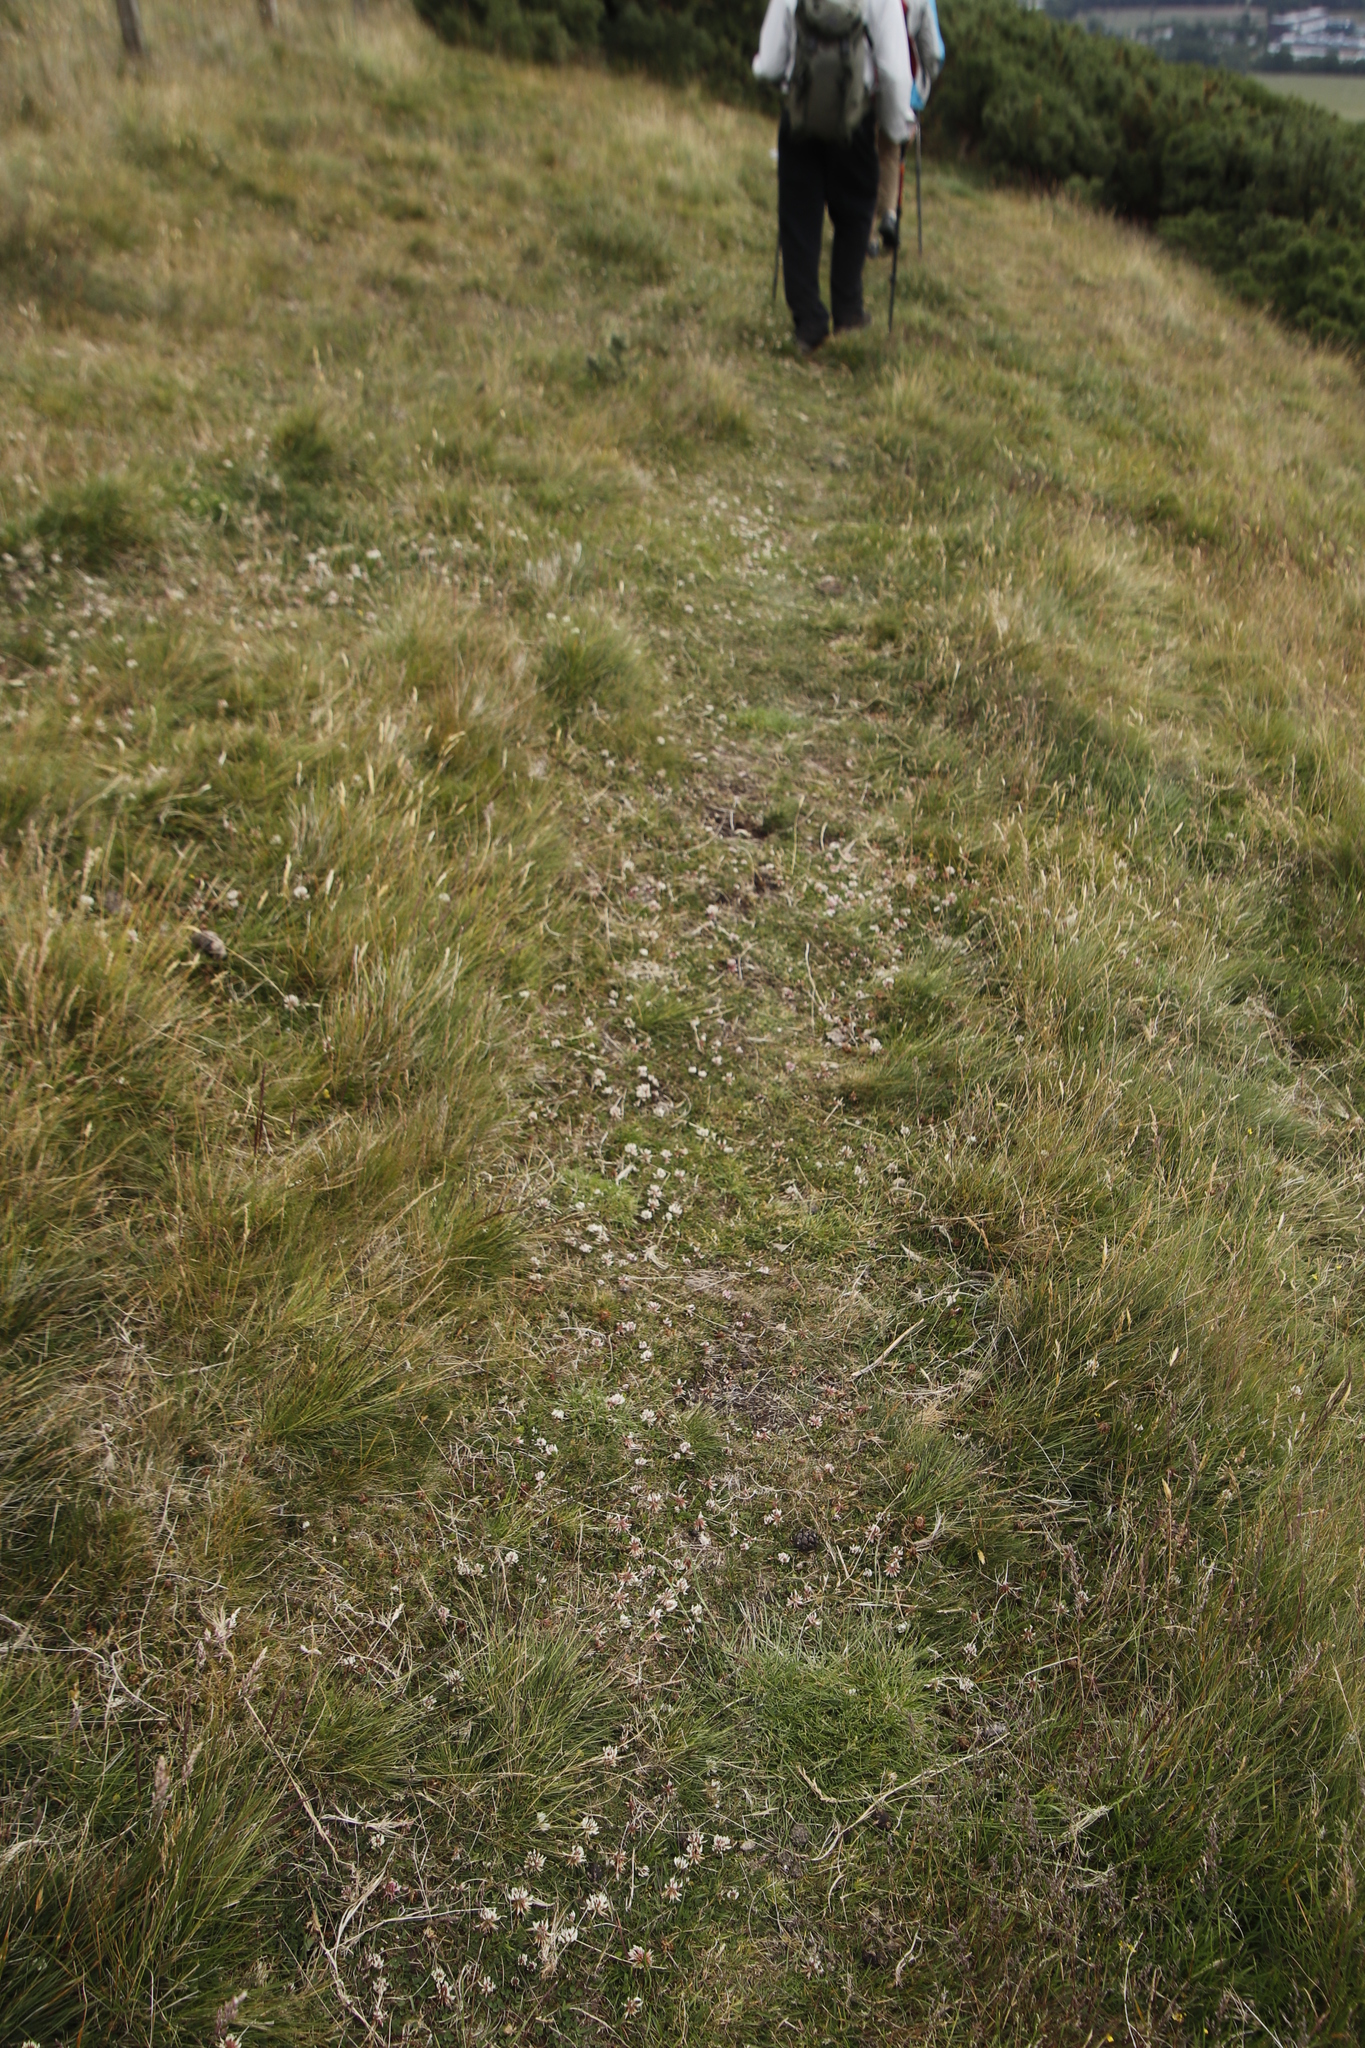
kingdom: Plantae
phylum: Tracheophyta
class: Magnoliopsida
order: Gentianales
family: Rubiaceae
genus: Galium
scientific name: Galium saxatile
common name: Heath bedstraw
